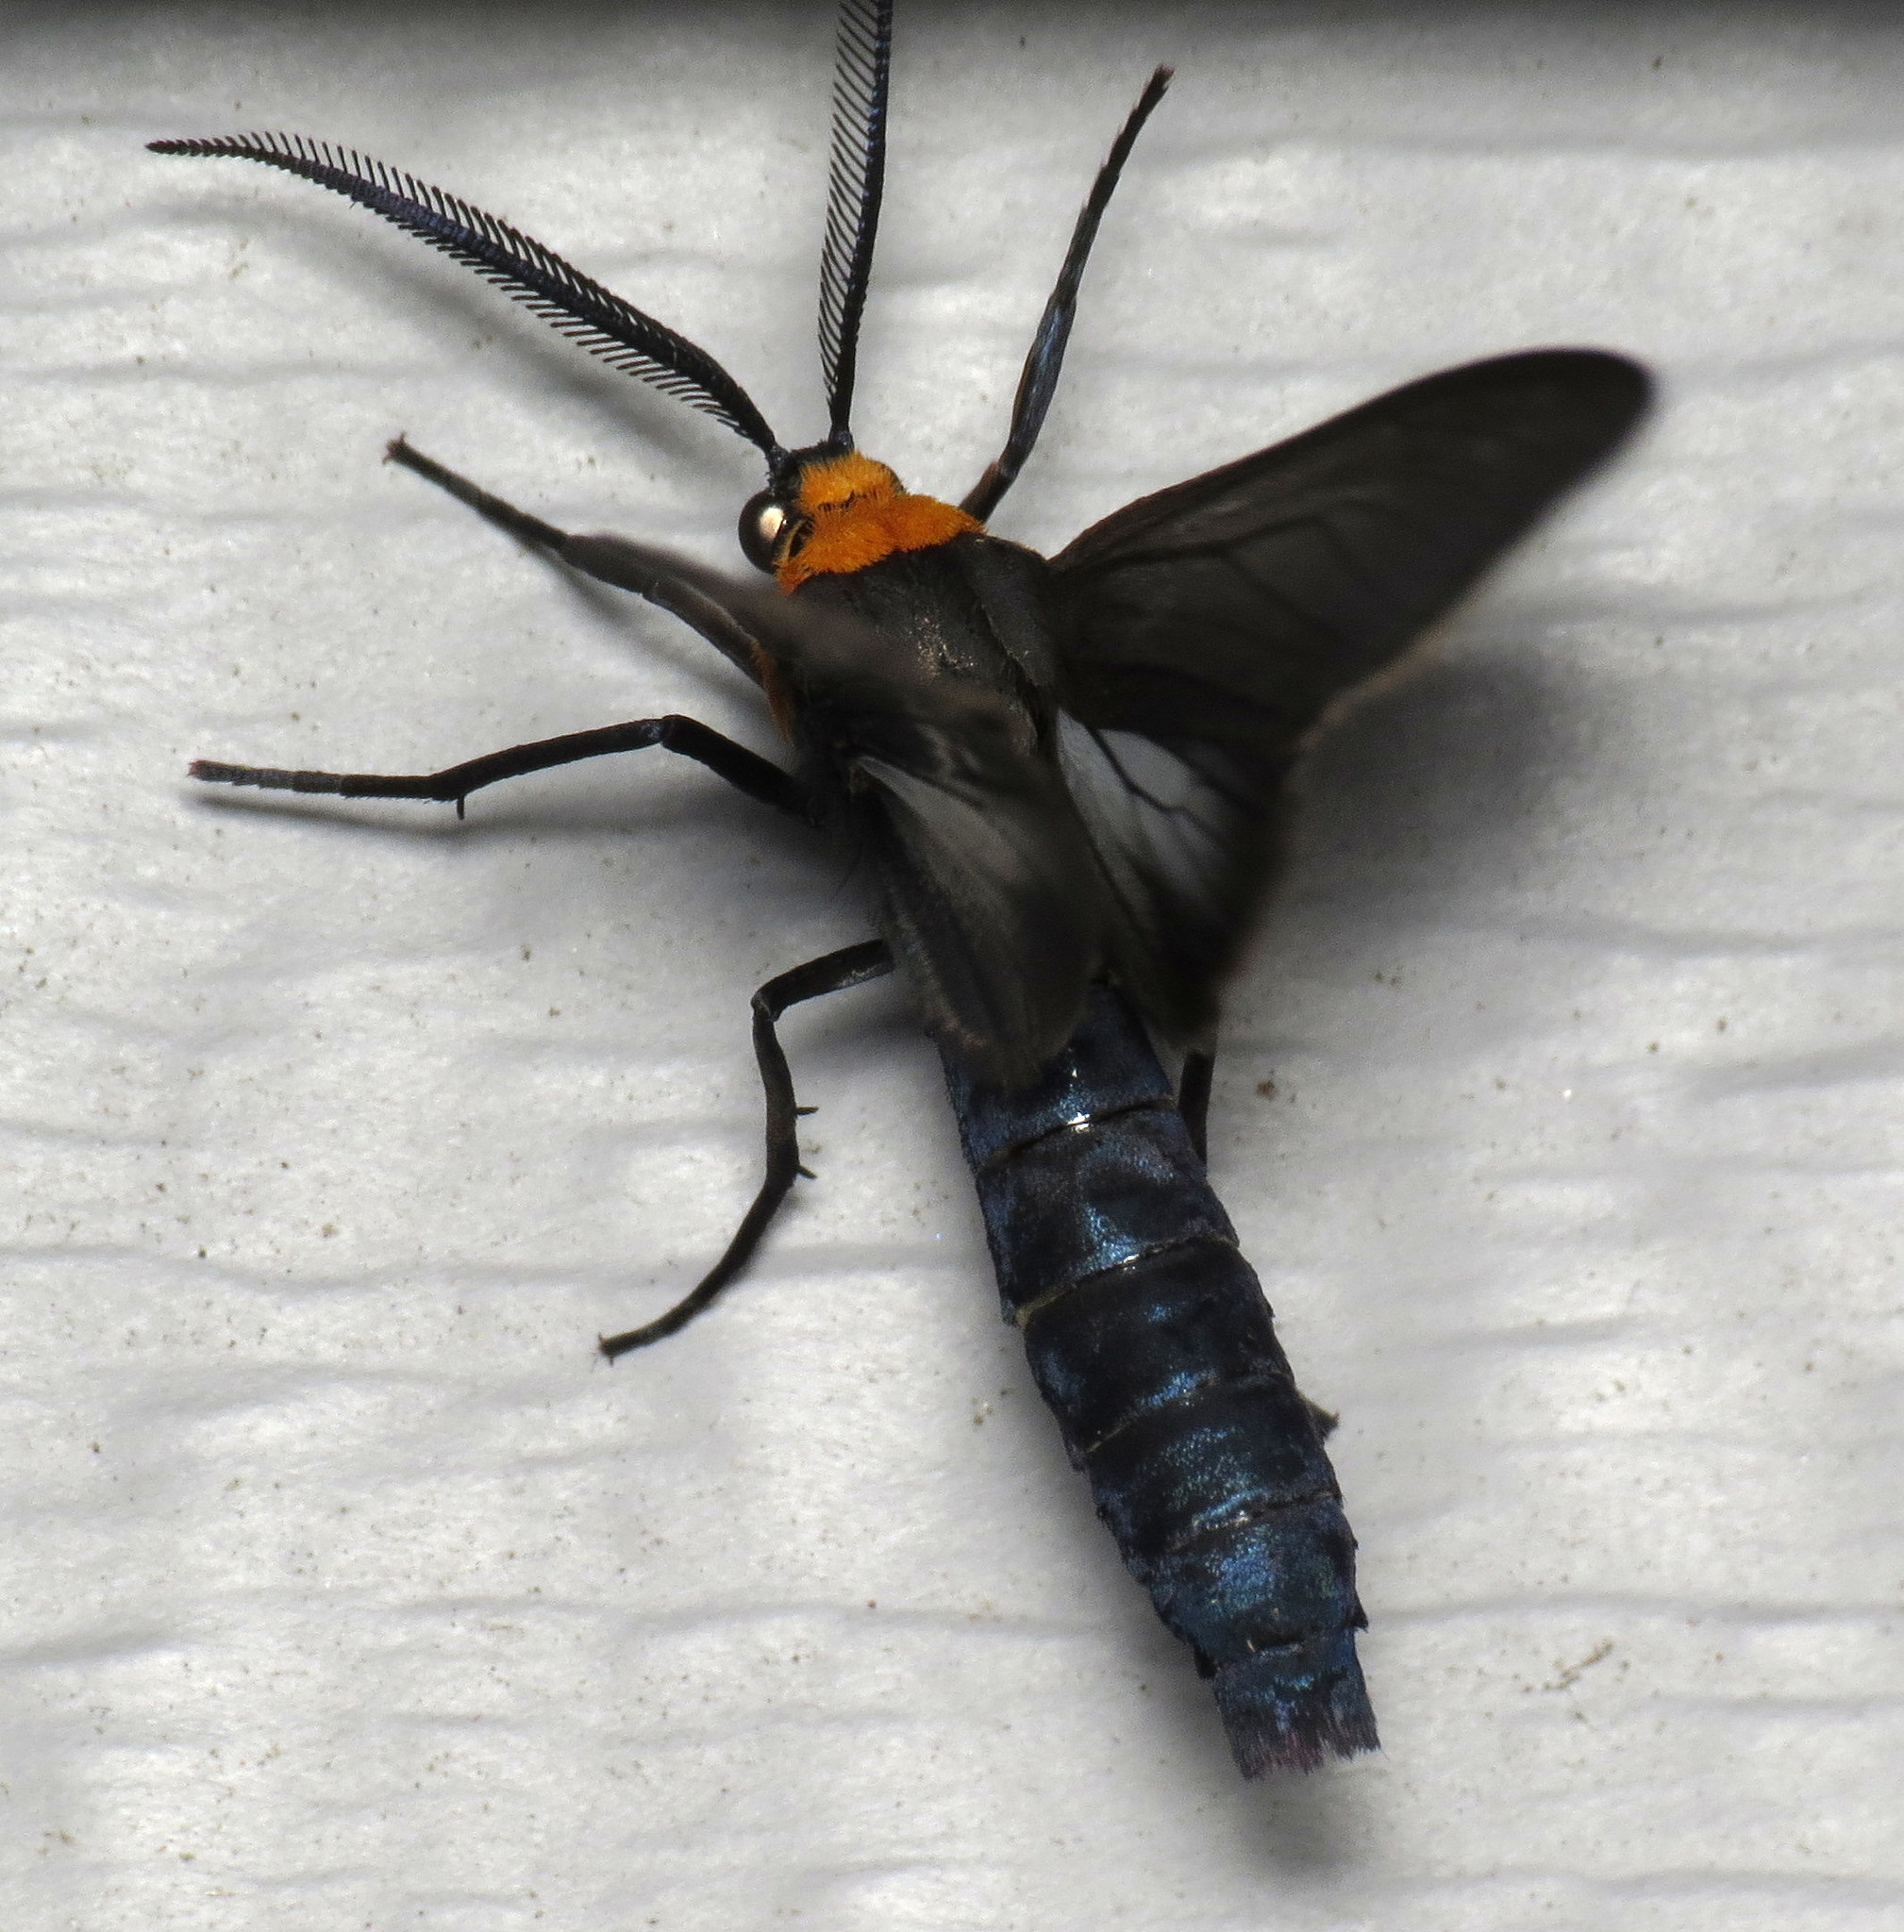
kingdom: Animalia
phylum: Arthropoda
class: Insecta
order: Lepidoptera
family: Erebidae
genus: Cisseps
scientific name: Cisseps fulvicollis
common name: Yellow-collared scape moth
